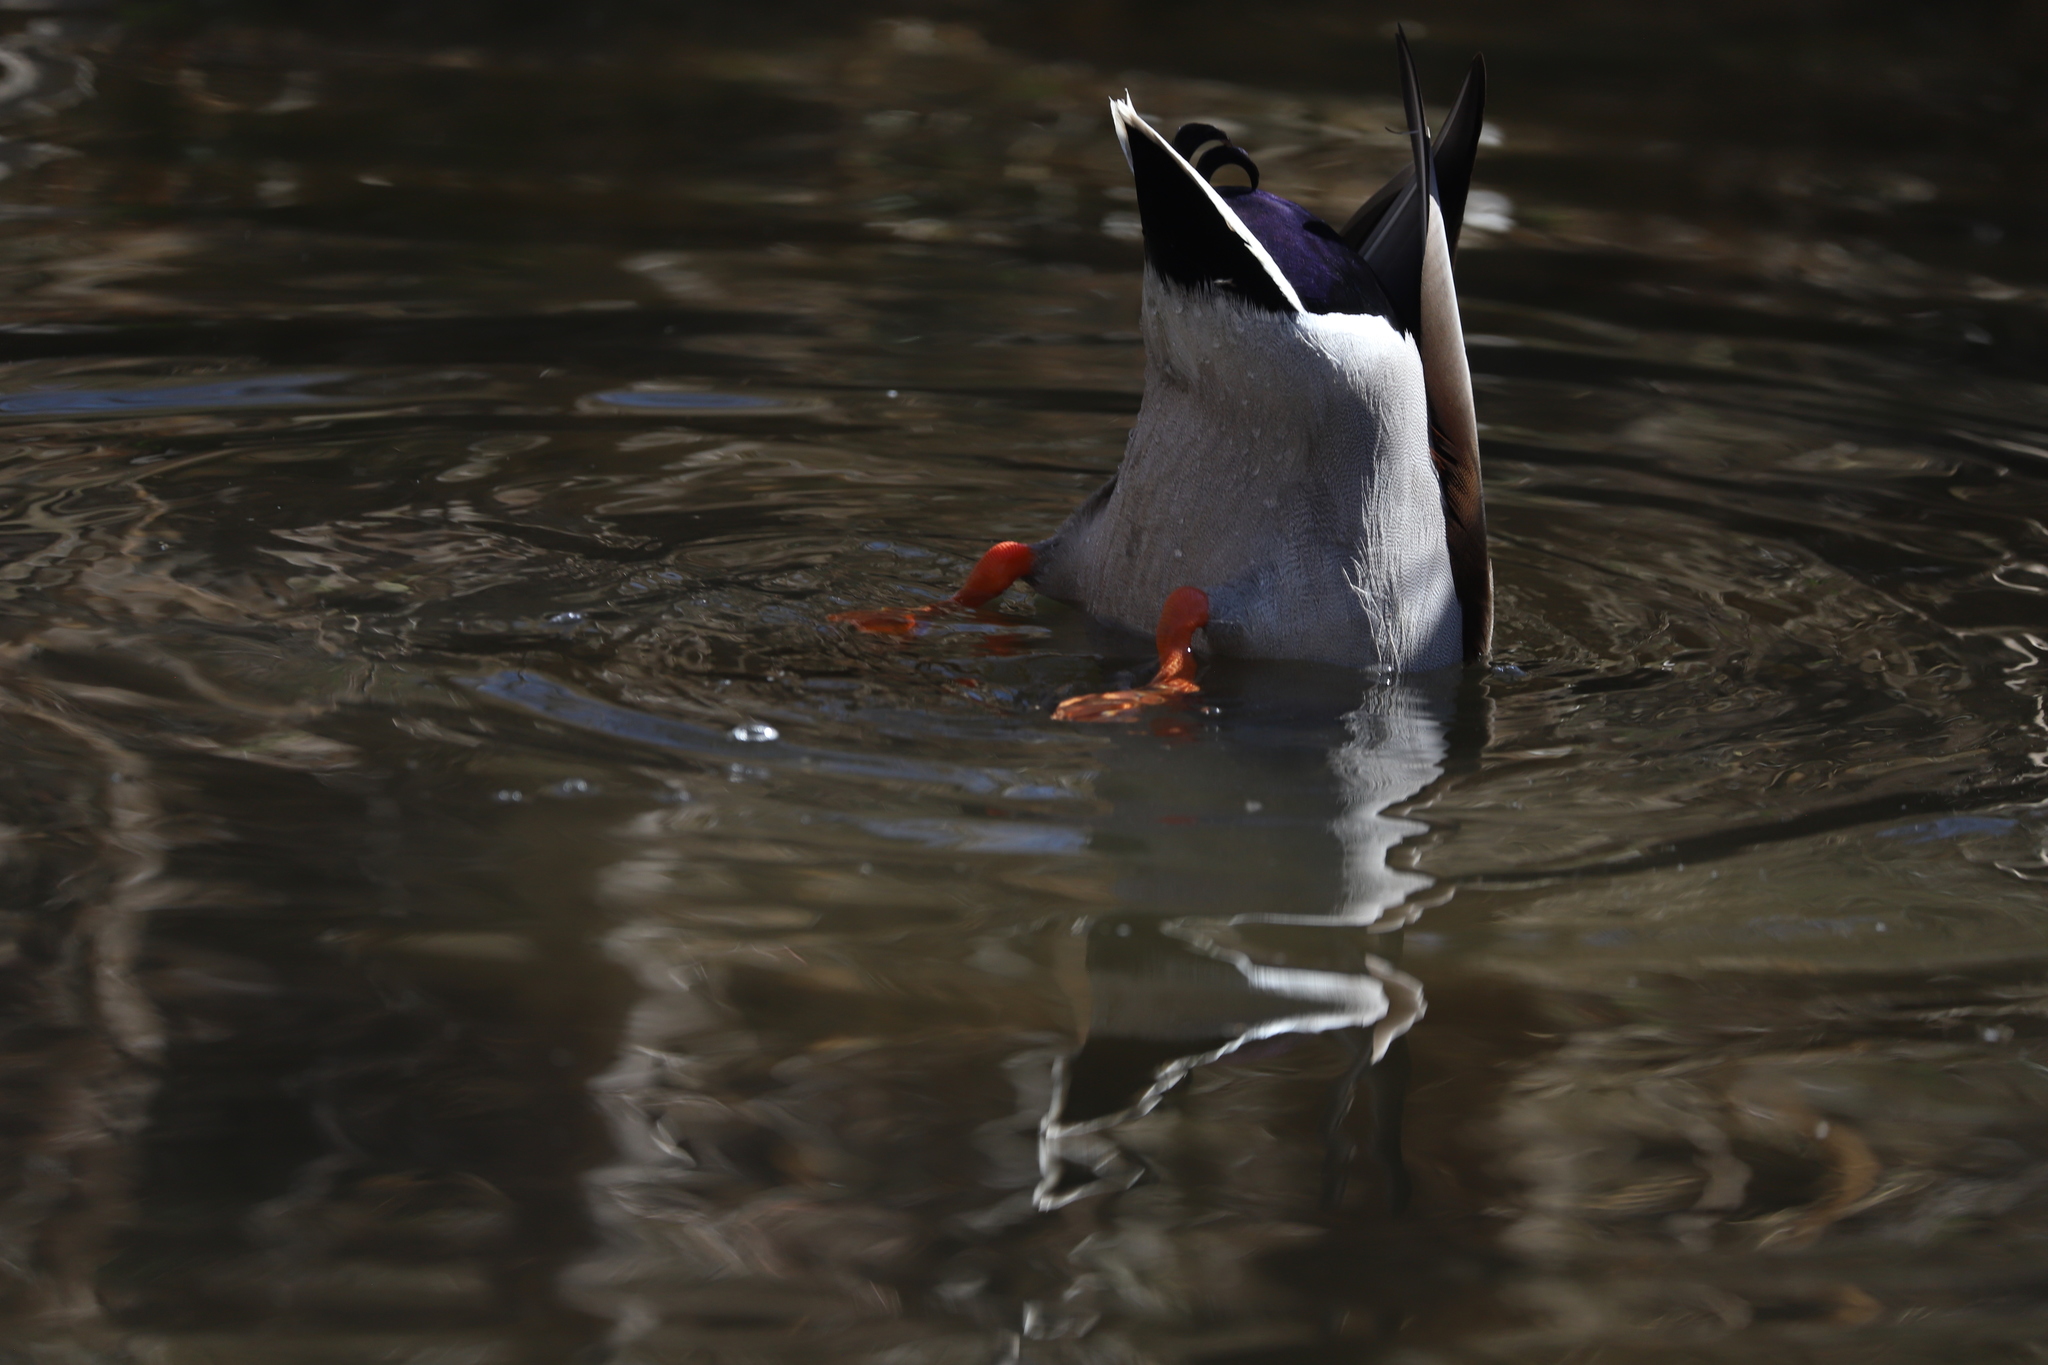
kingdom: Animalia
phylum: Chordata
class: Aves
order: Anseriformes
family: Anatidae
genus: Anas
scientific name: Anas platyrhynchos
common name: Mallard
